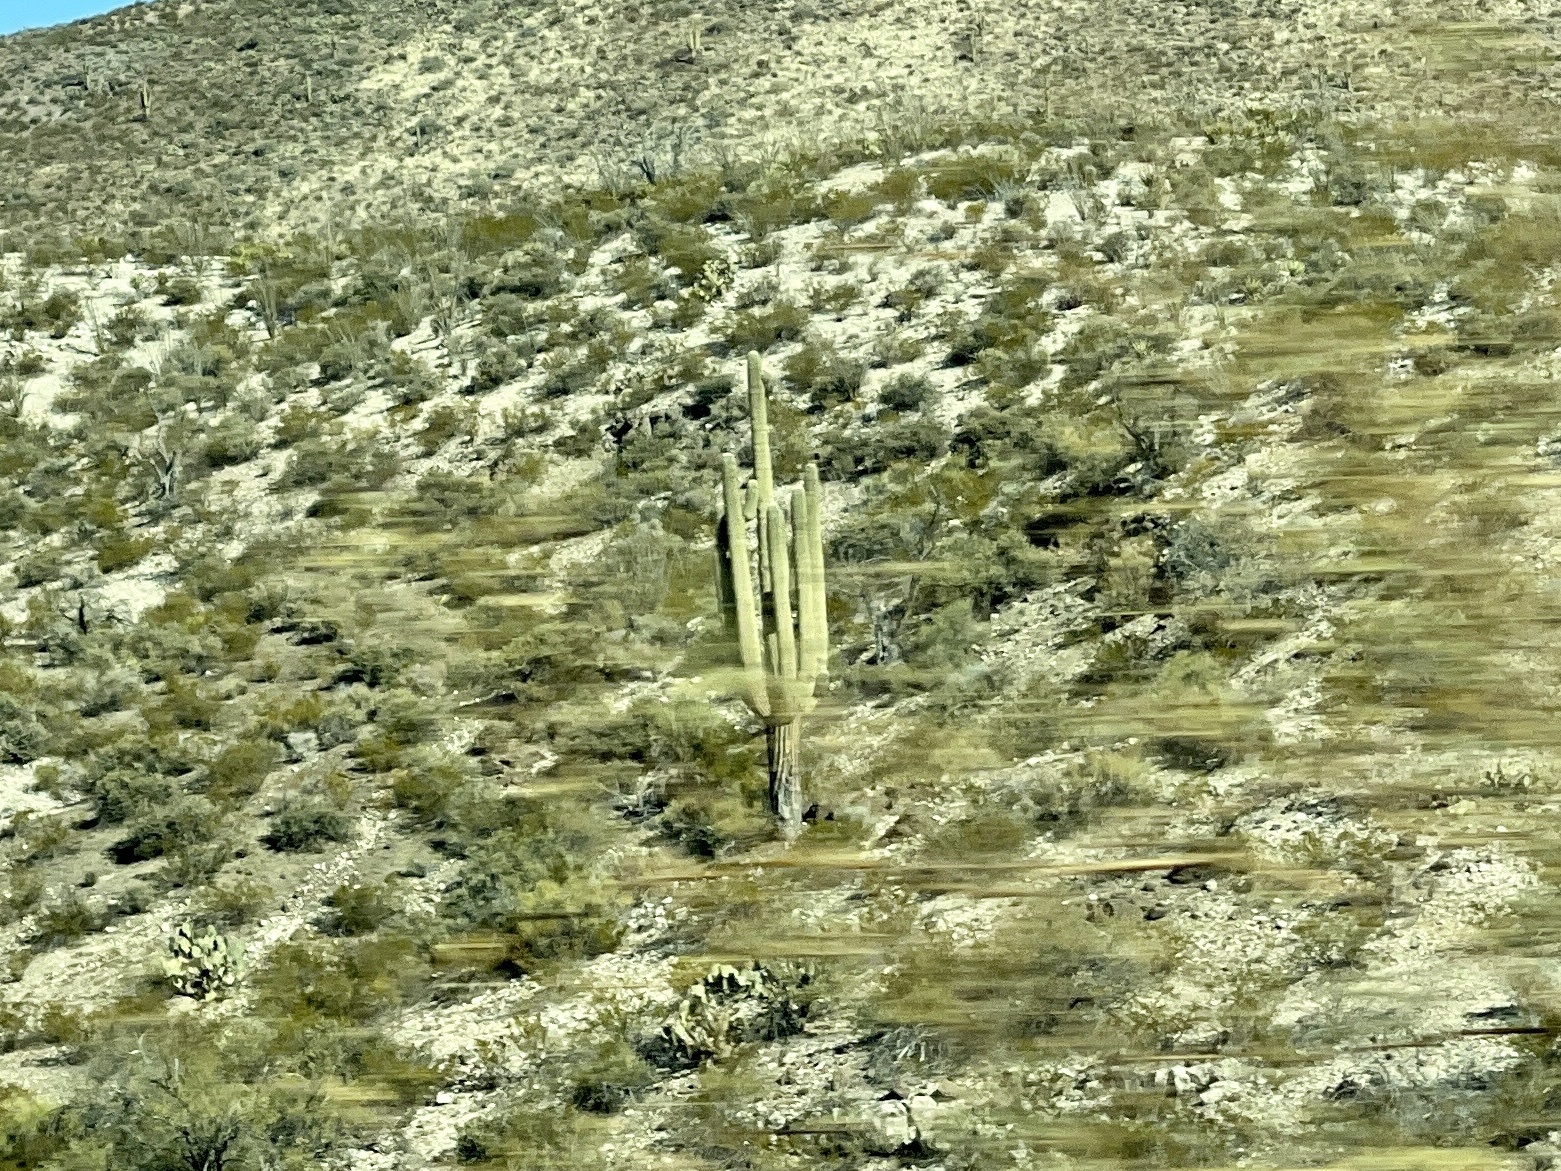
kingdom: Plantae
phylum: Tracheophyta
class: Magnoliopsida
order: Caryophyllales
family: Cactaceae
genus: Carnegiea
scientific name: Carnegiea gigantea
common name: Saguaro
